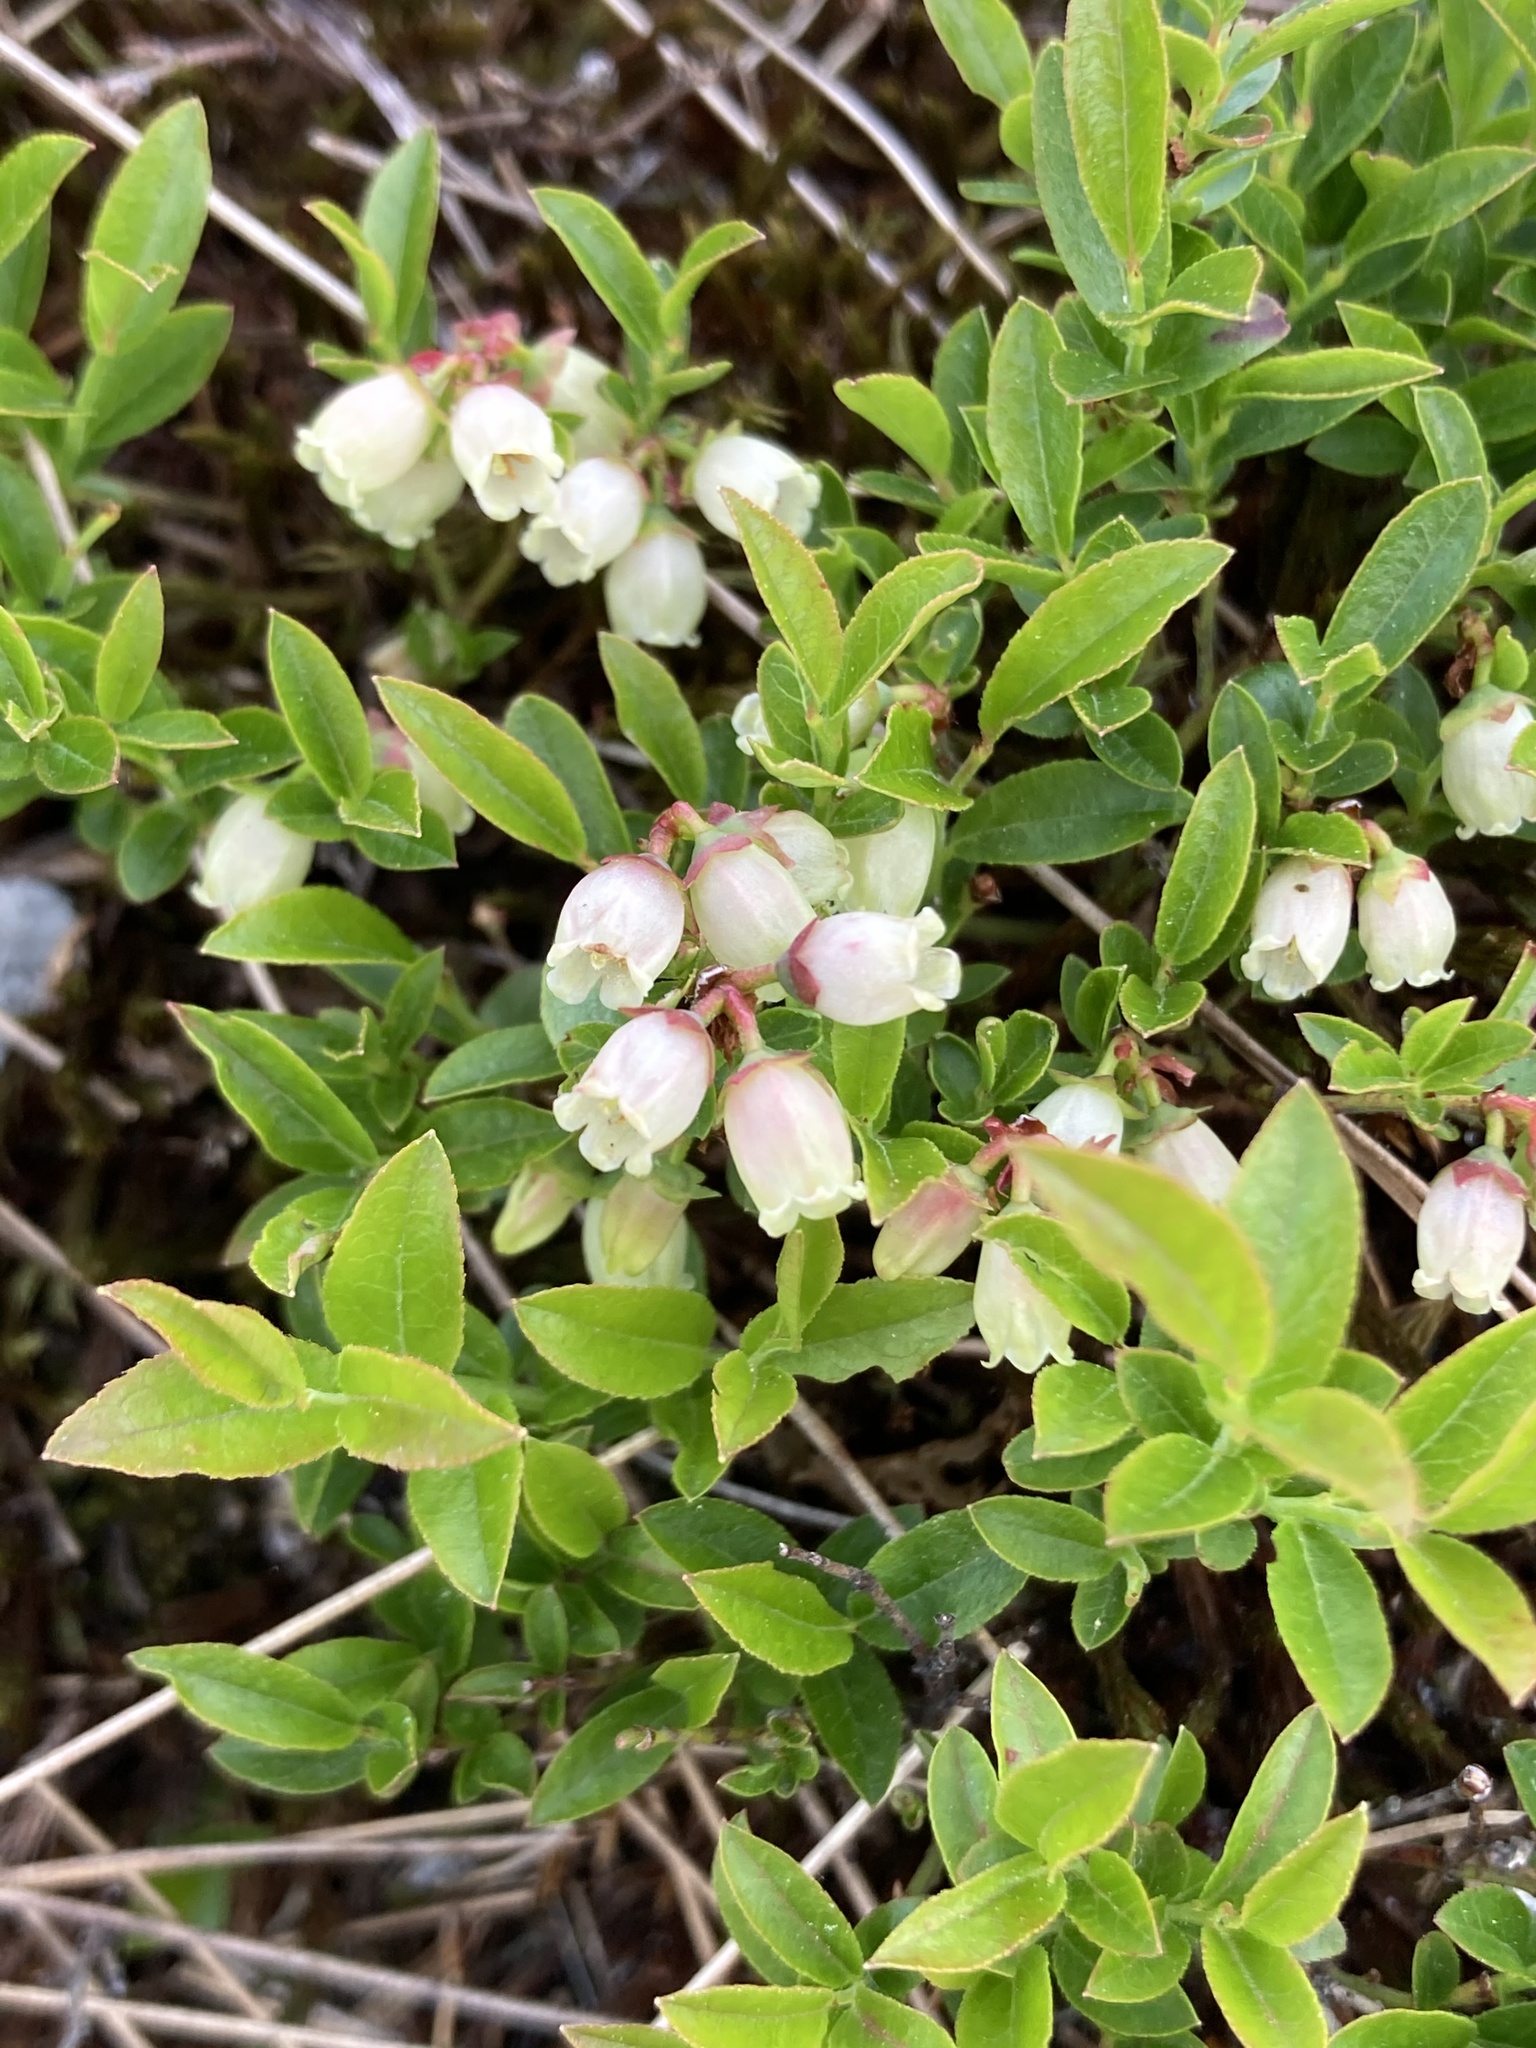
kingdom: Plantae
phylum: Tracheophyta
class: Magnoliopsida
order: Ericales
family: Ericaceae
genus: Vaccinium
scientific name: Vaccinium angustifolium
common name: Early lowbush blueberry
